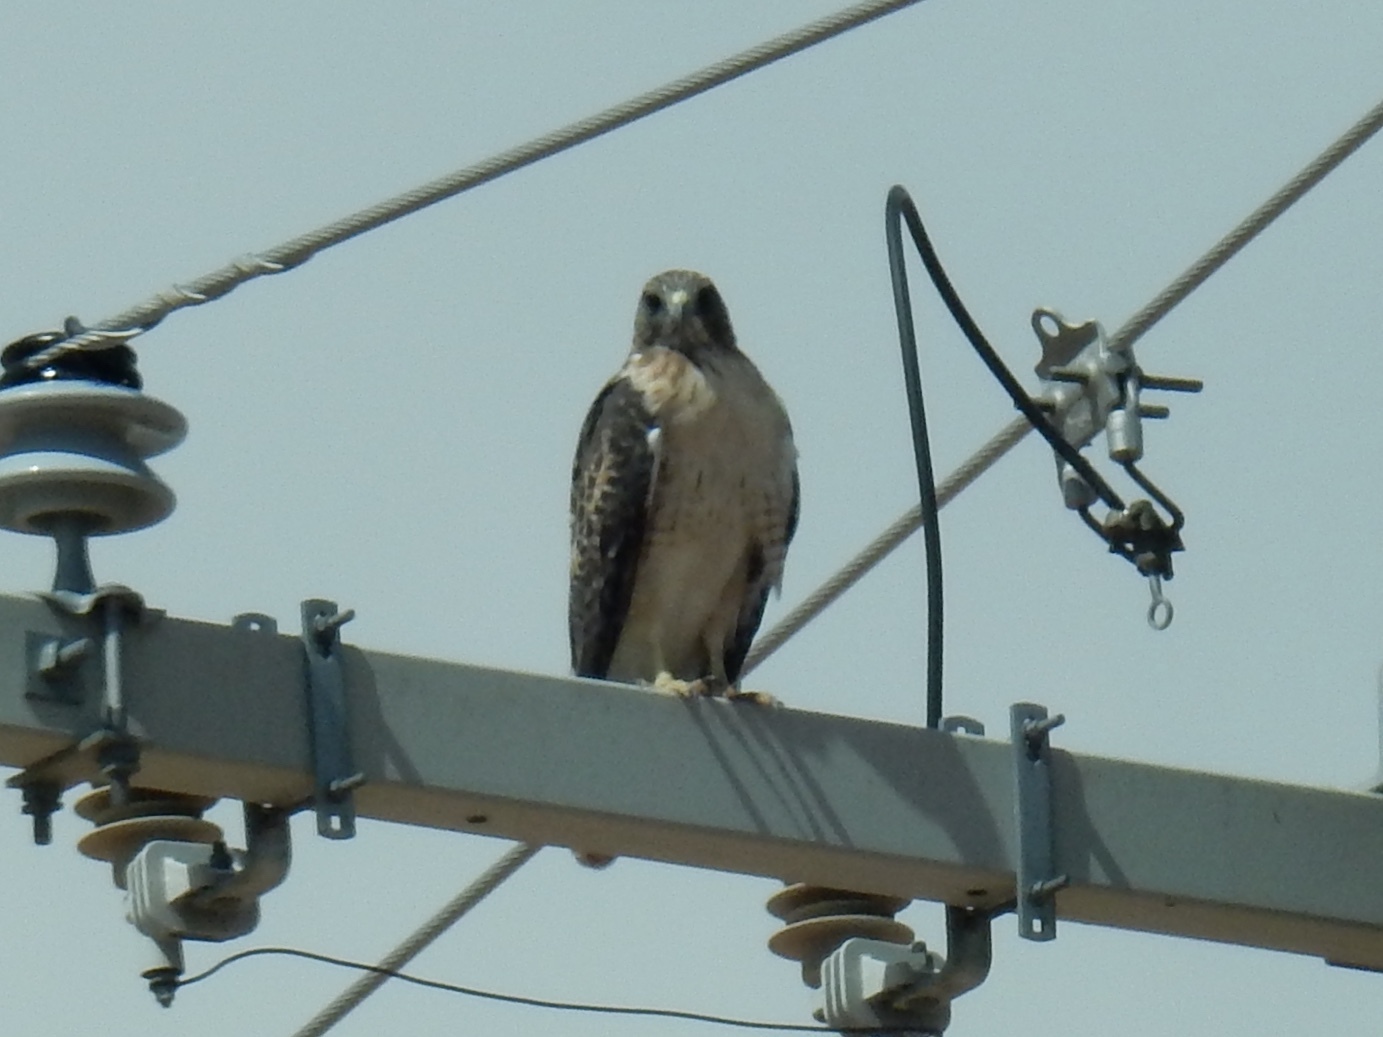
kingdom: Animalia
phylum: Chordata
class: Aves
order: Accipitriformes
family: Accipitridae
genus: Buteo
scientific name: Buteo jamaicensis
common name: Red-tailed hawk
